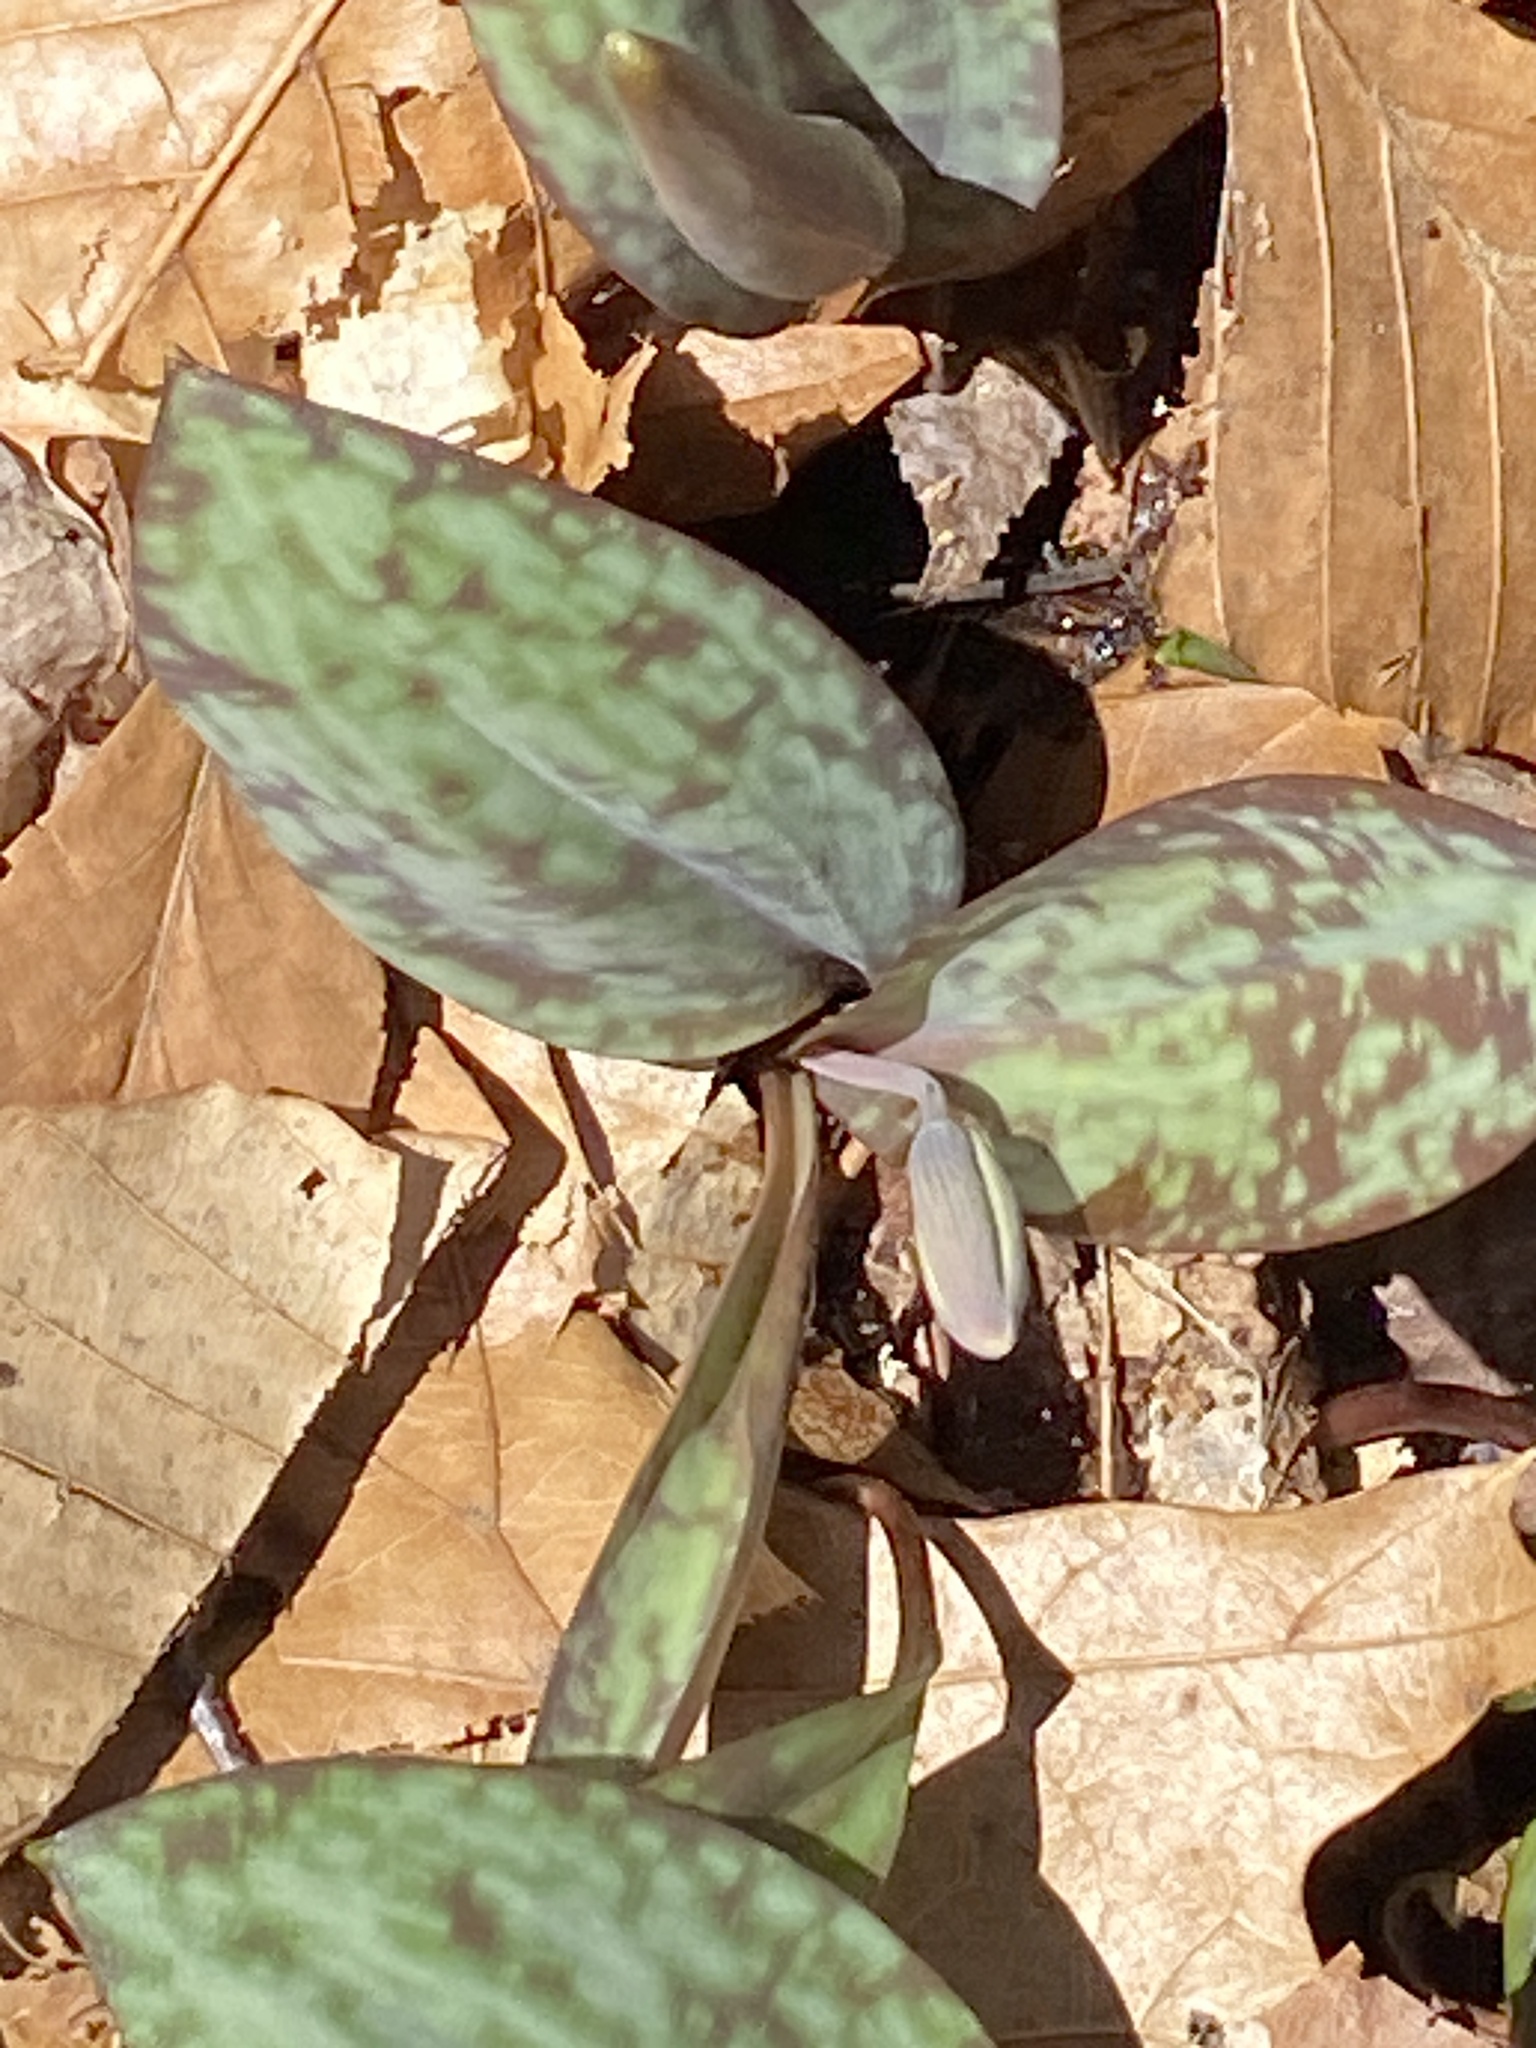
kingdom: Plantae
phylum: Tracheophyta
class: Liliopsida
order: Liliales
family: Liliaceae
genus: Erythronium
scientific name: Erythronium americanum
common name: Yellow adder's-tongue
